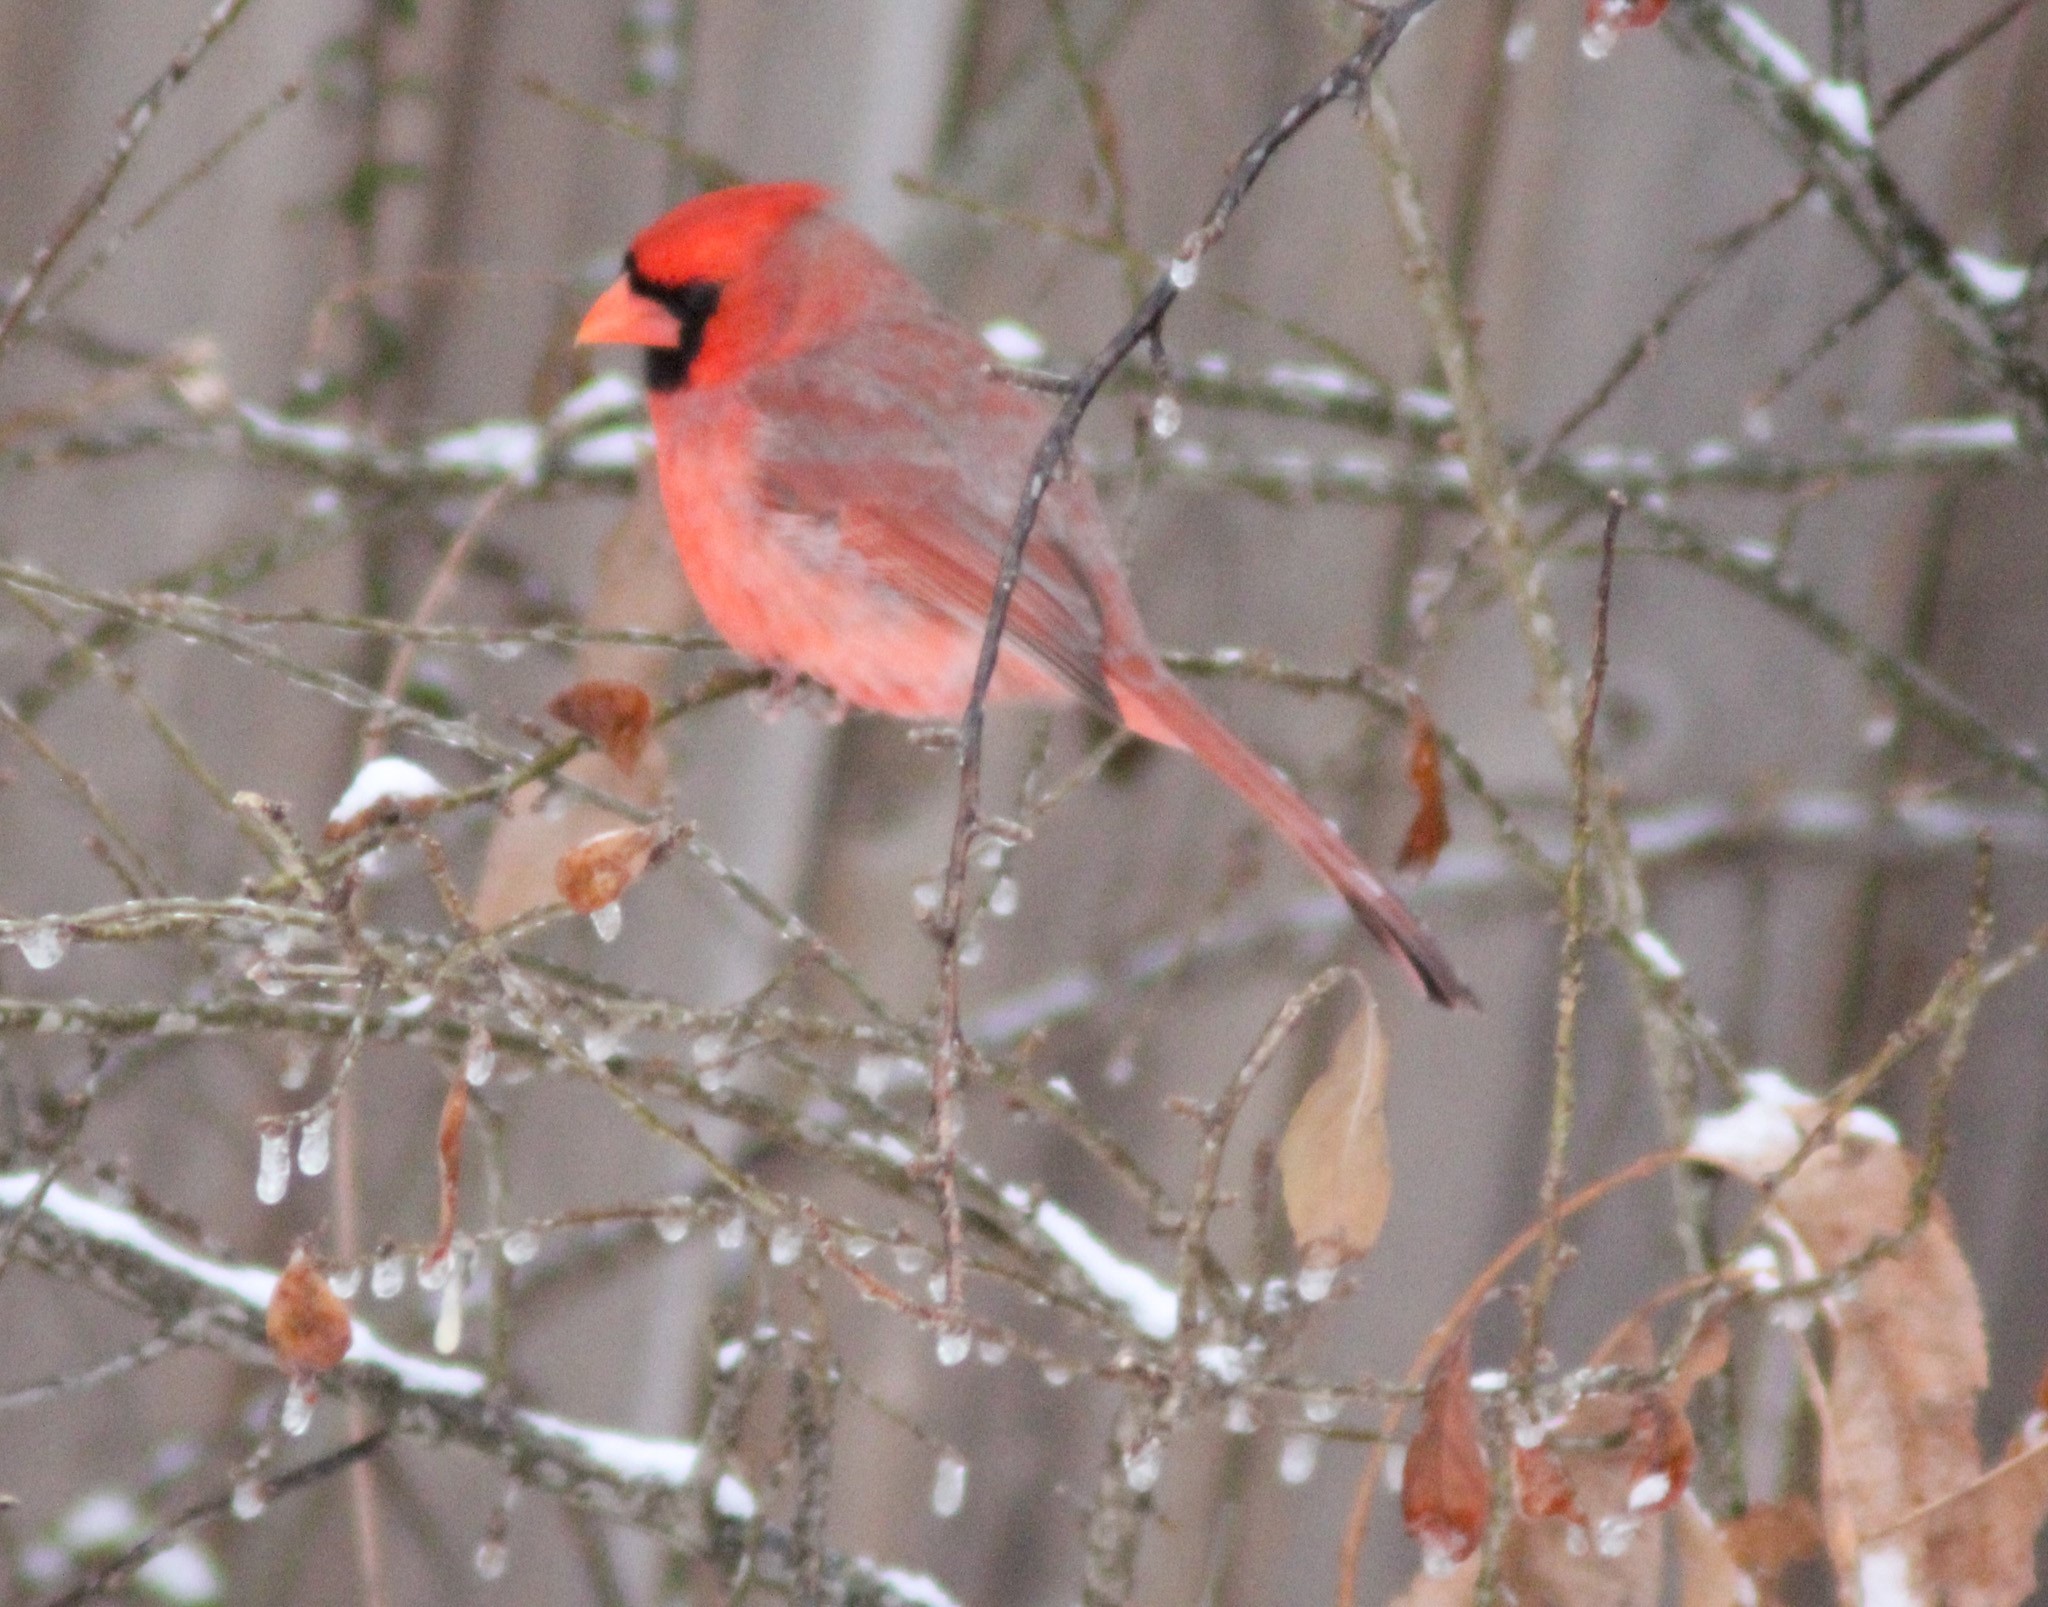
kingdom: Animalia
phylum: Chordata
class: Aves
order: Passeriformes
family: Cardinalidae
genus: Cardinalis
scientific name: Cardinalis cardinalis
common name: Northern cardinal
